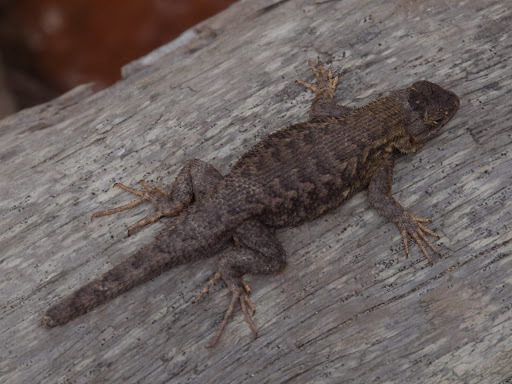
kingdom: Animalia
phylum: Chordata
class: Squamata
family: Phrynosomatidae
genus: Sceloporus
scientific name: Sceloporus occidentalis
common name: Western fence lizard
